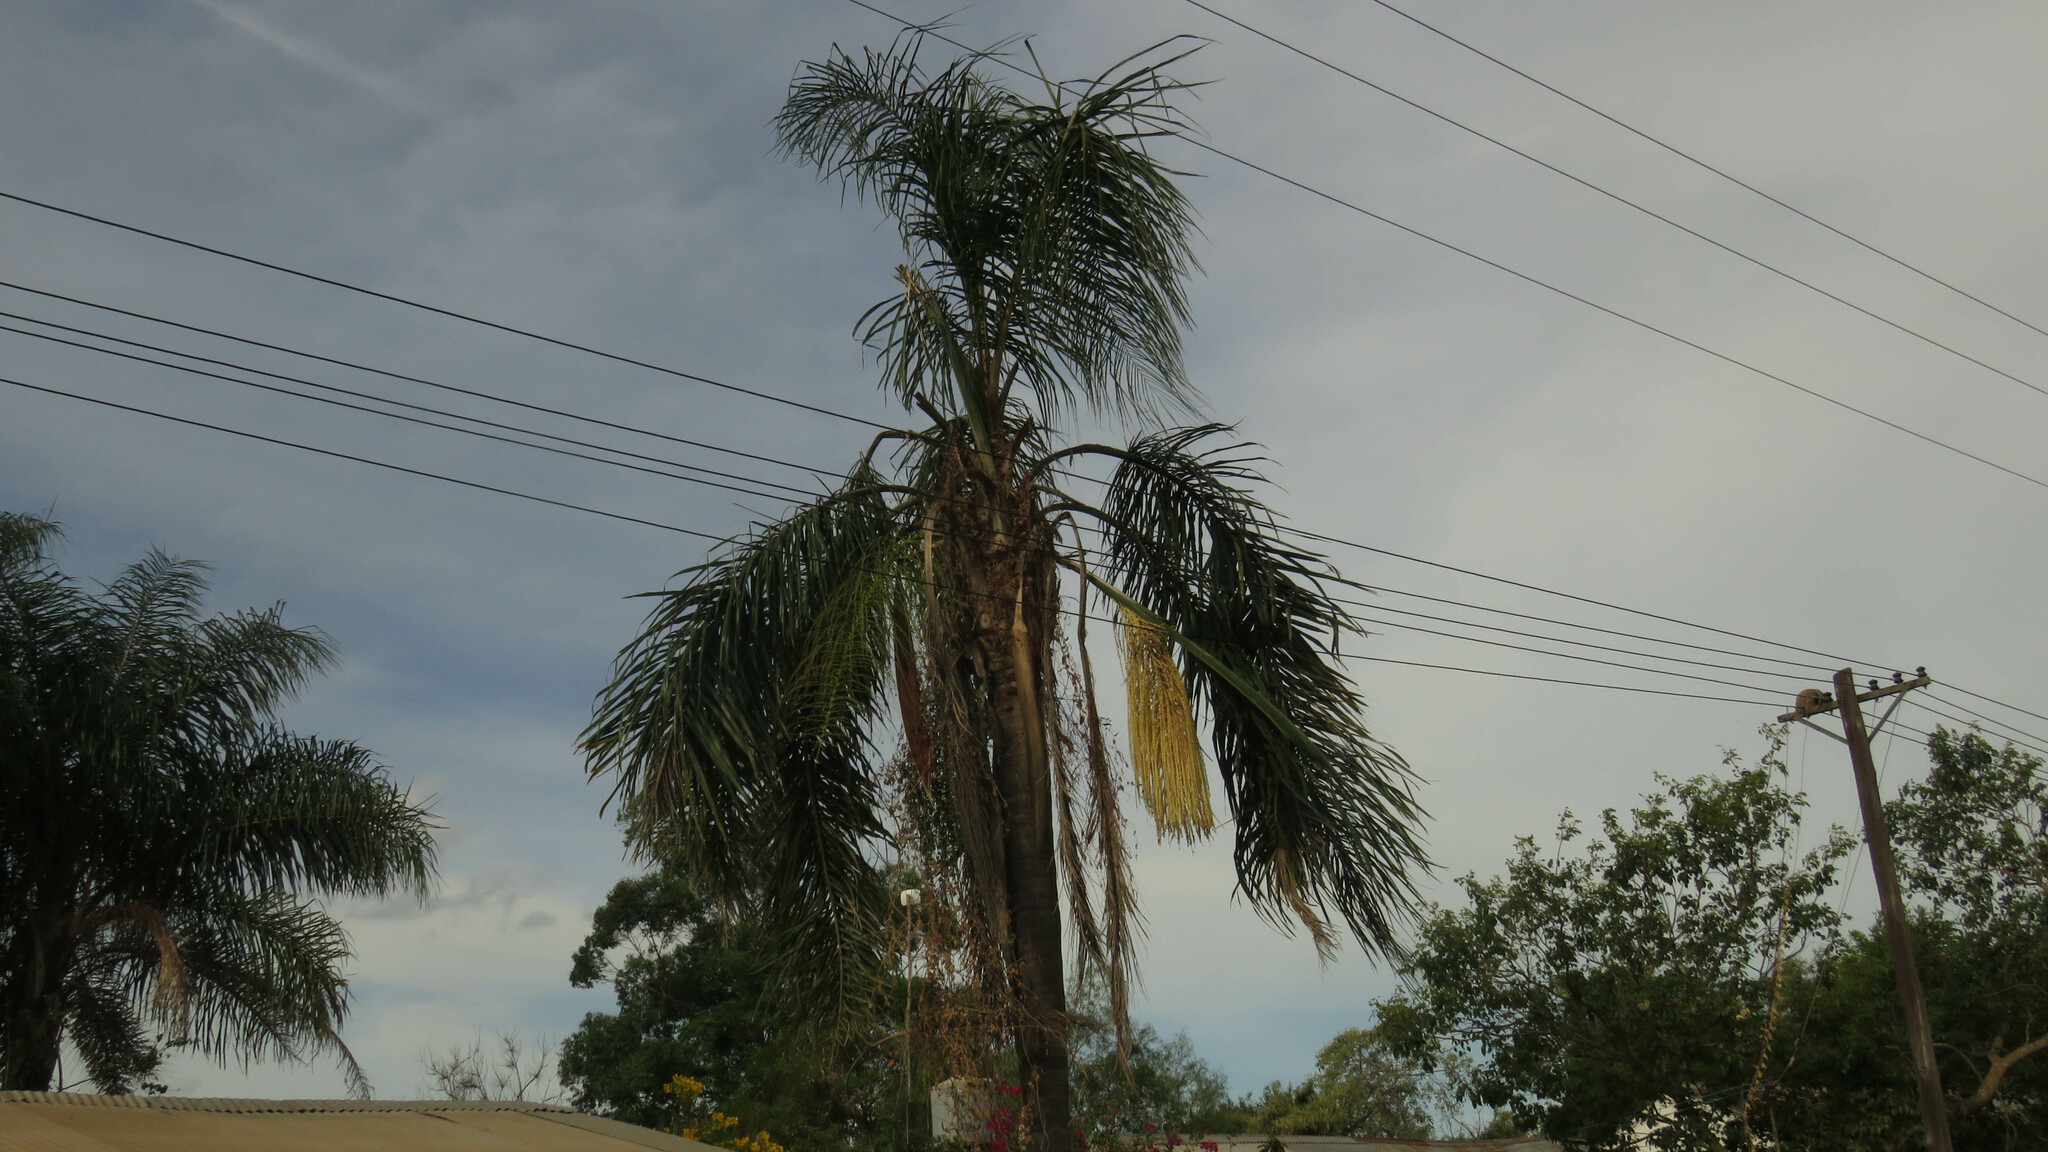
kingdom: Plantae
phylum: Tracheophyta
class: Liliopsida
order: Arecales
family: Arecaceae
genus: Syagrus
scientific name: Syagrus romanzoffiana
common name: Queen palm
